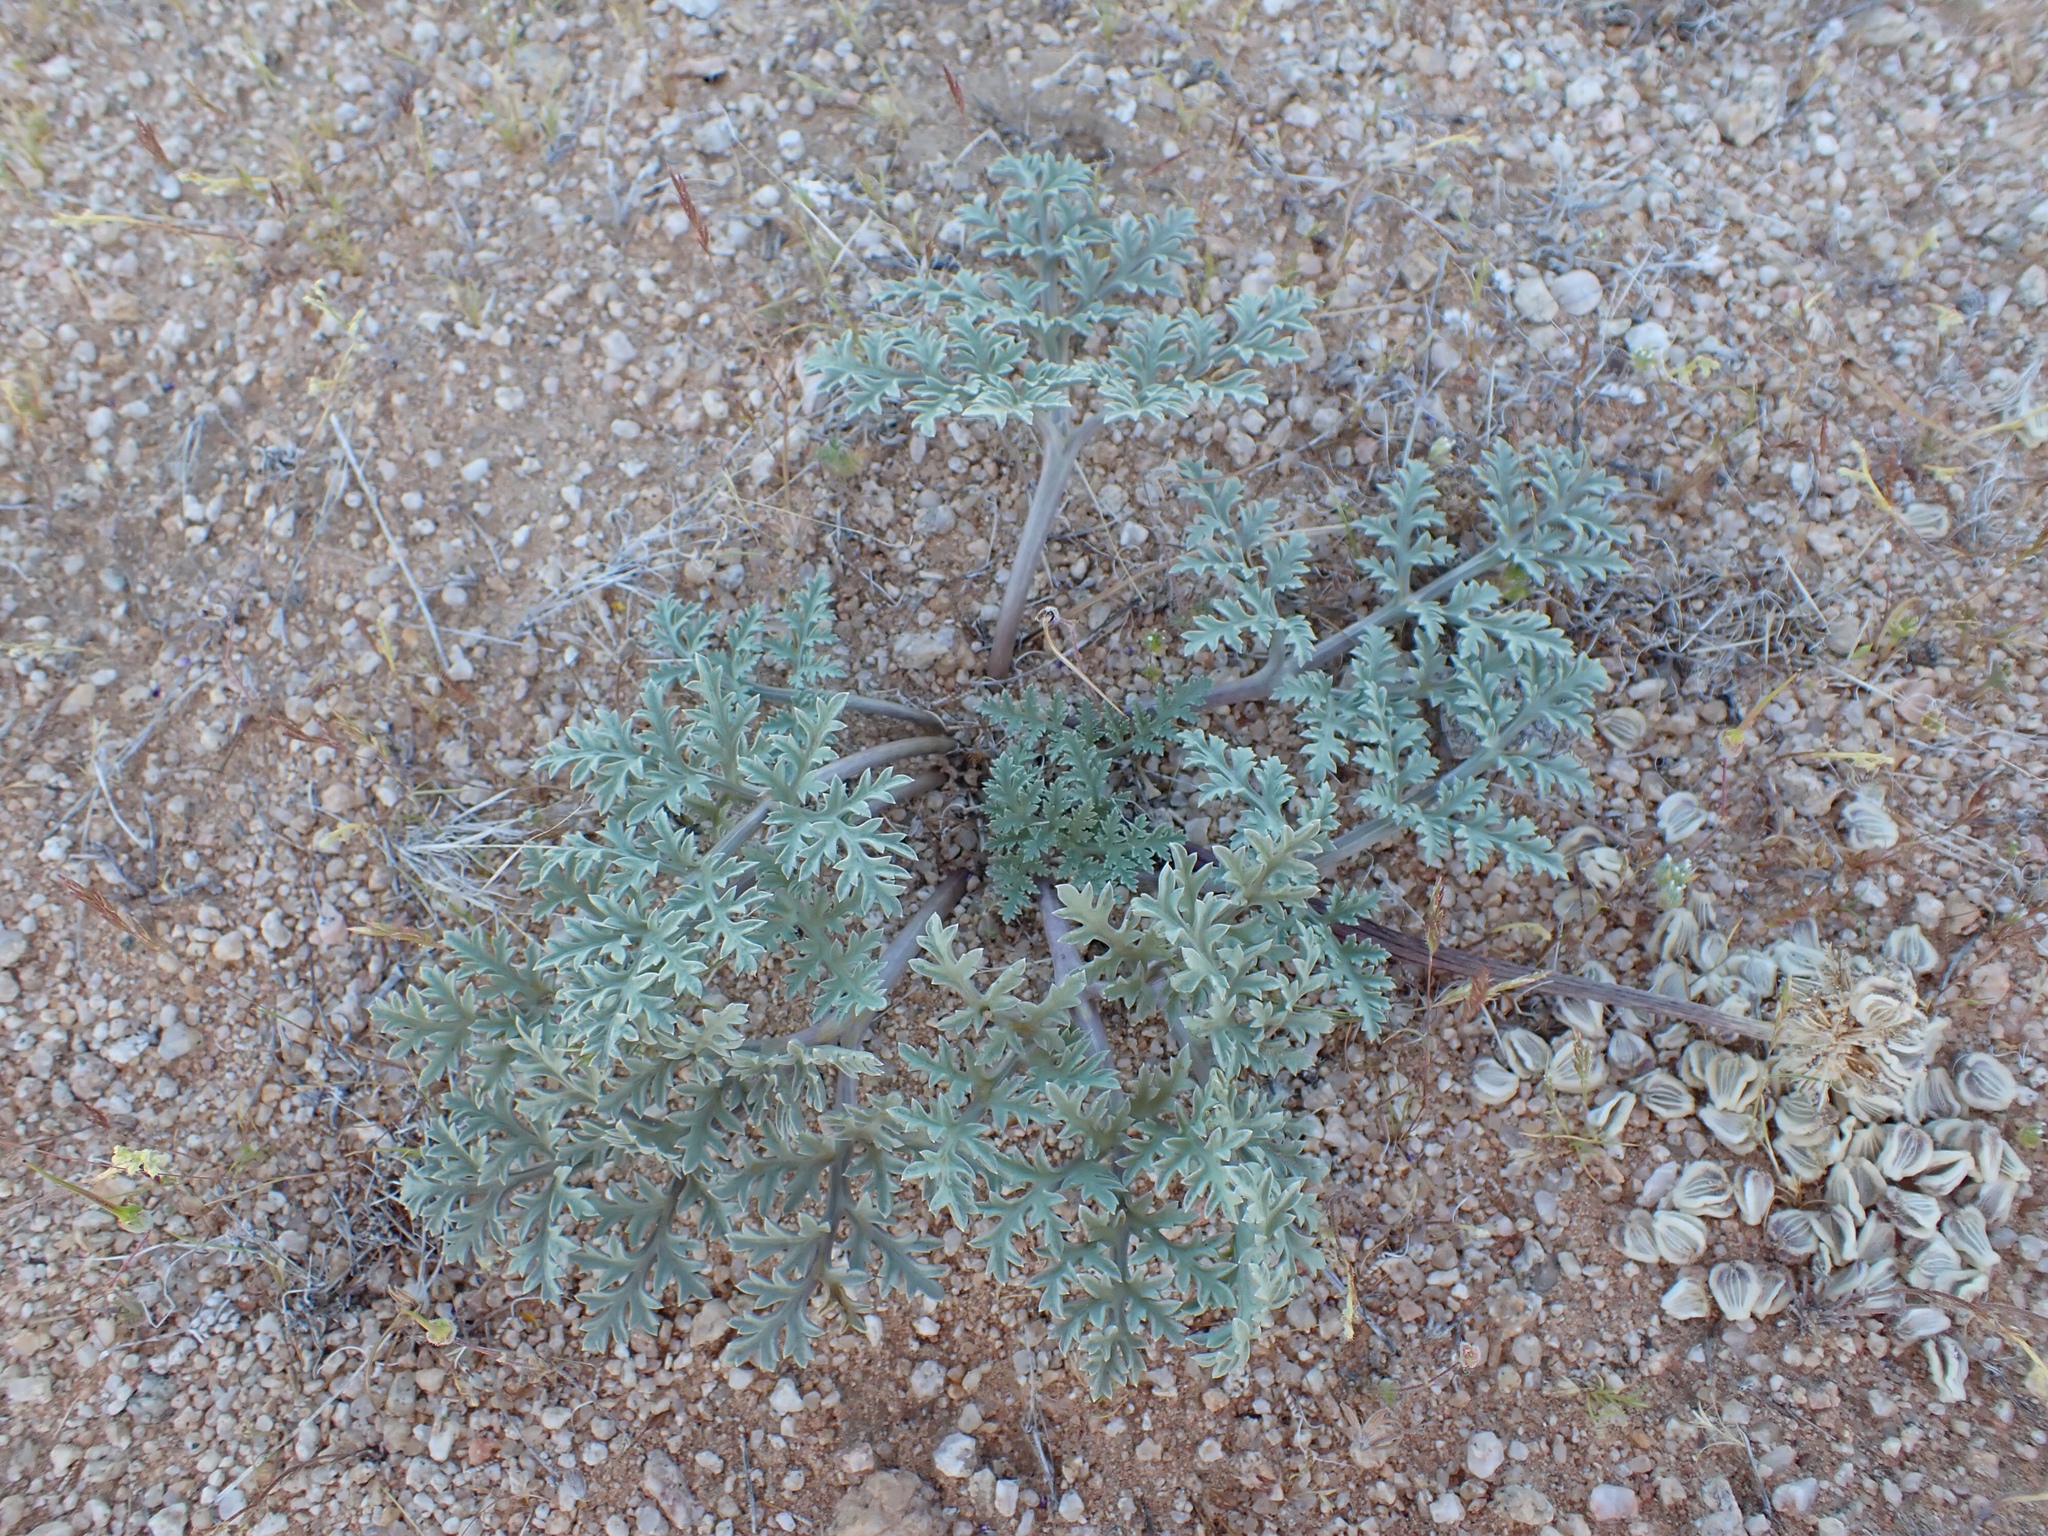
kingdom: Plantae
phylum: Tracheophyta
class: Magnoliopsida
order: Apiales
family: Apiaceae
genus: Cymopterus
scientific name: Cymopterus deserticola
